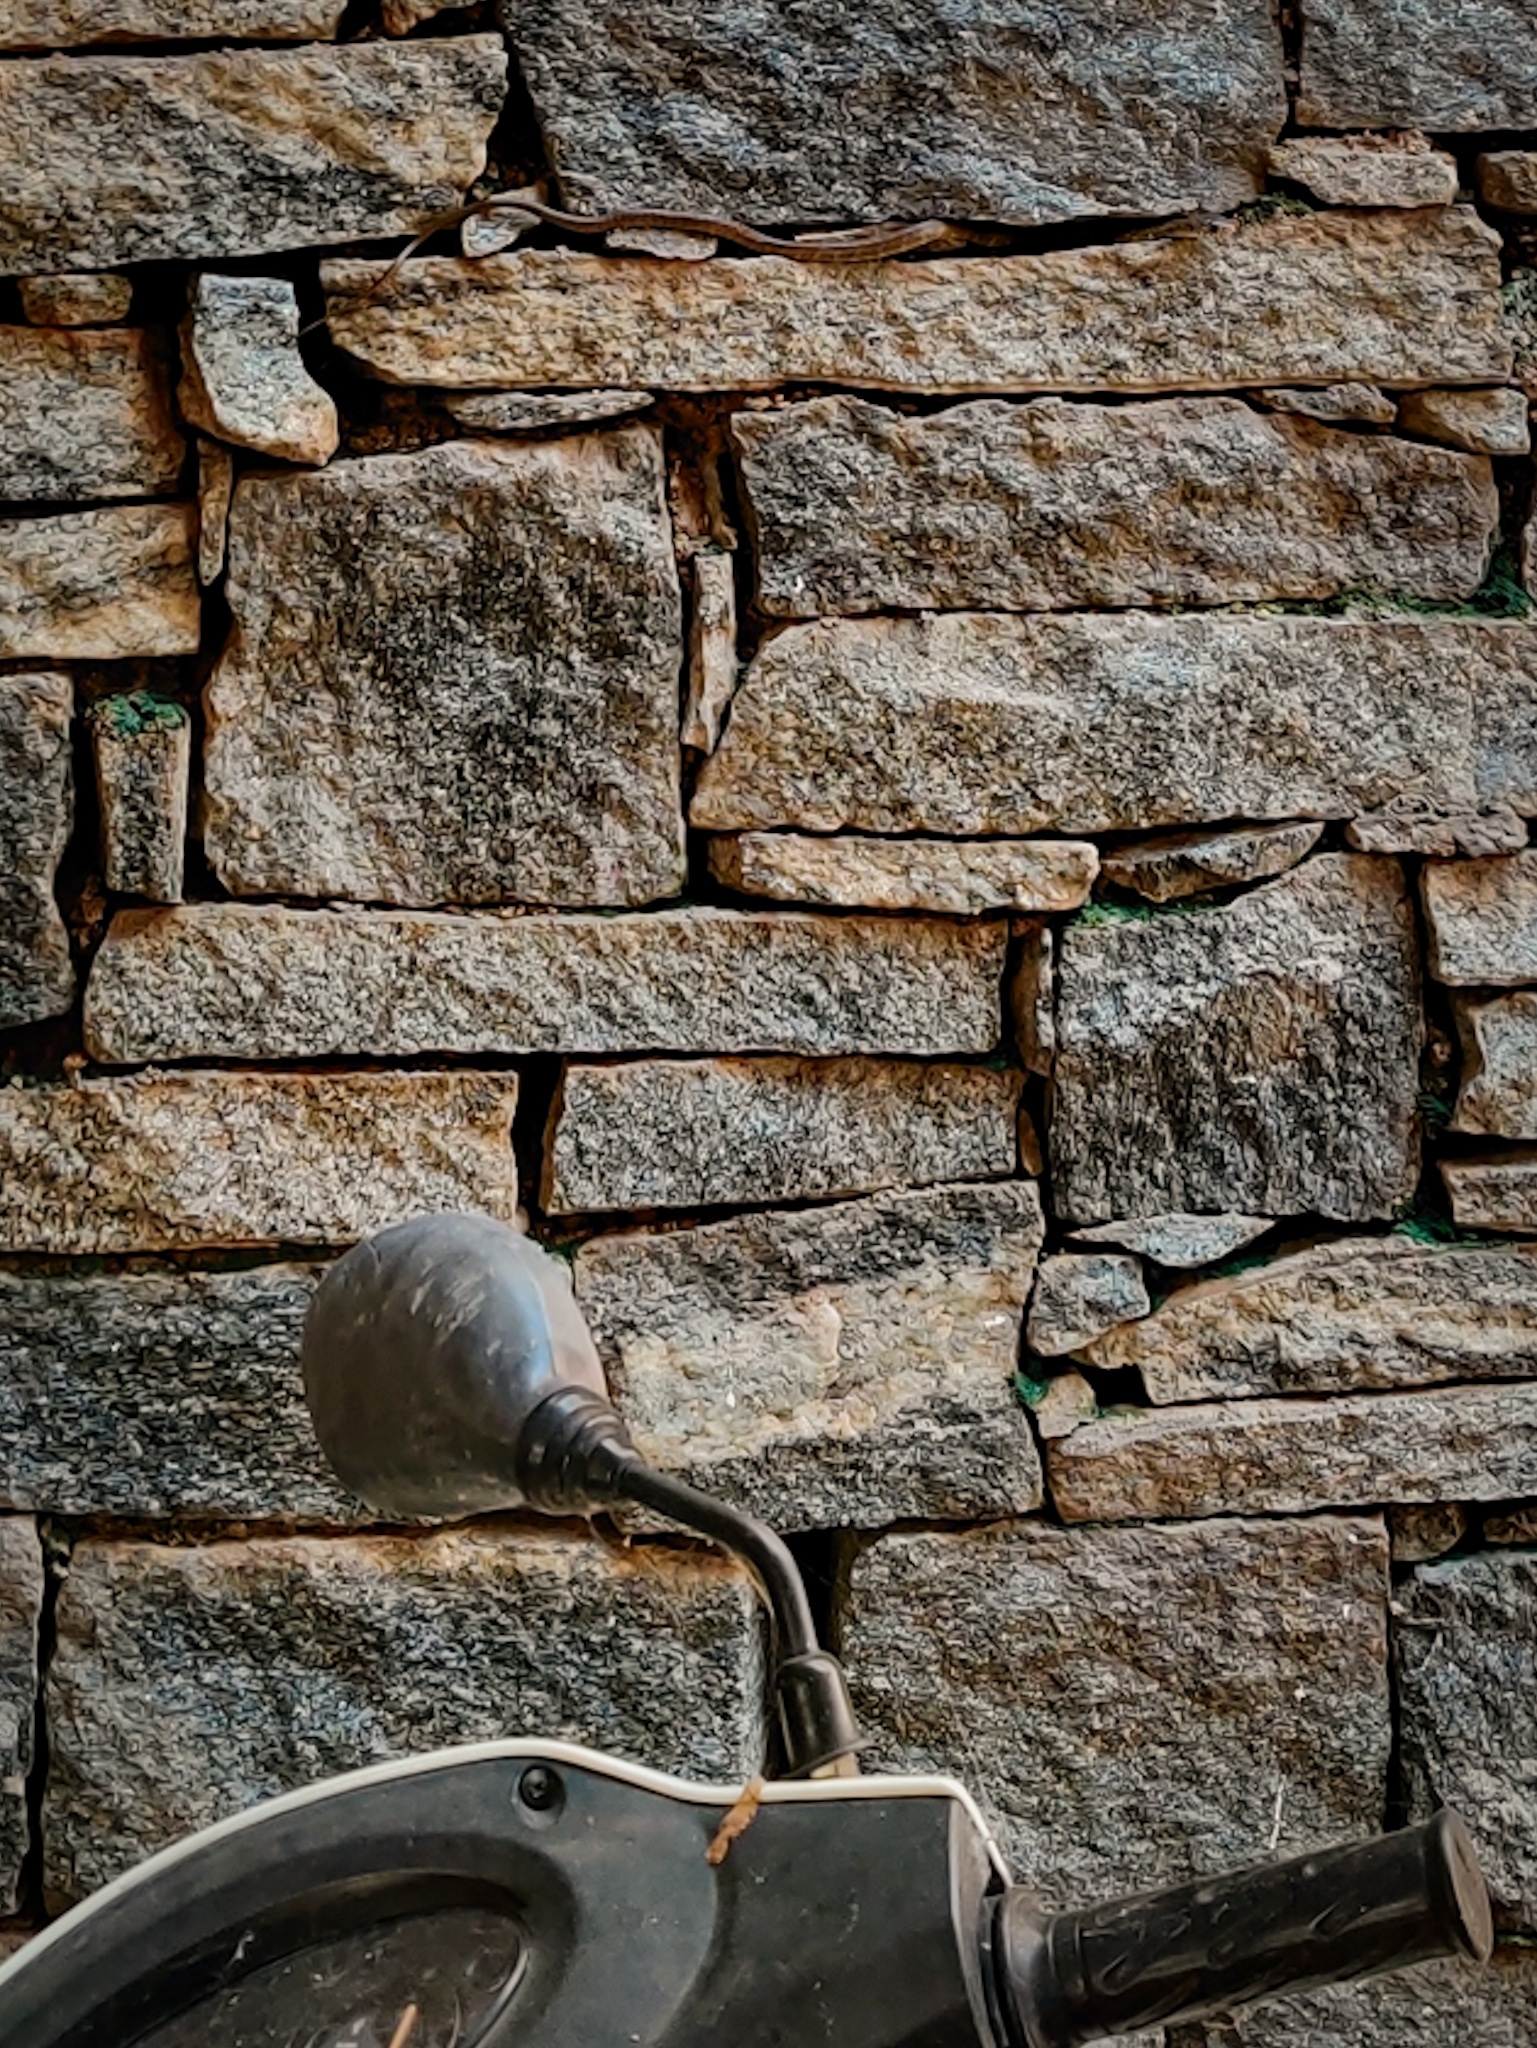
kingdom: Animalia
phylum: Chordata
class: Squamata
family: Colubridae
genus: Ptyas
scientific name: Ptyas mucosa
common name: Oriental ratsnake
